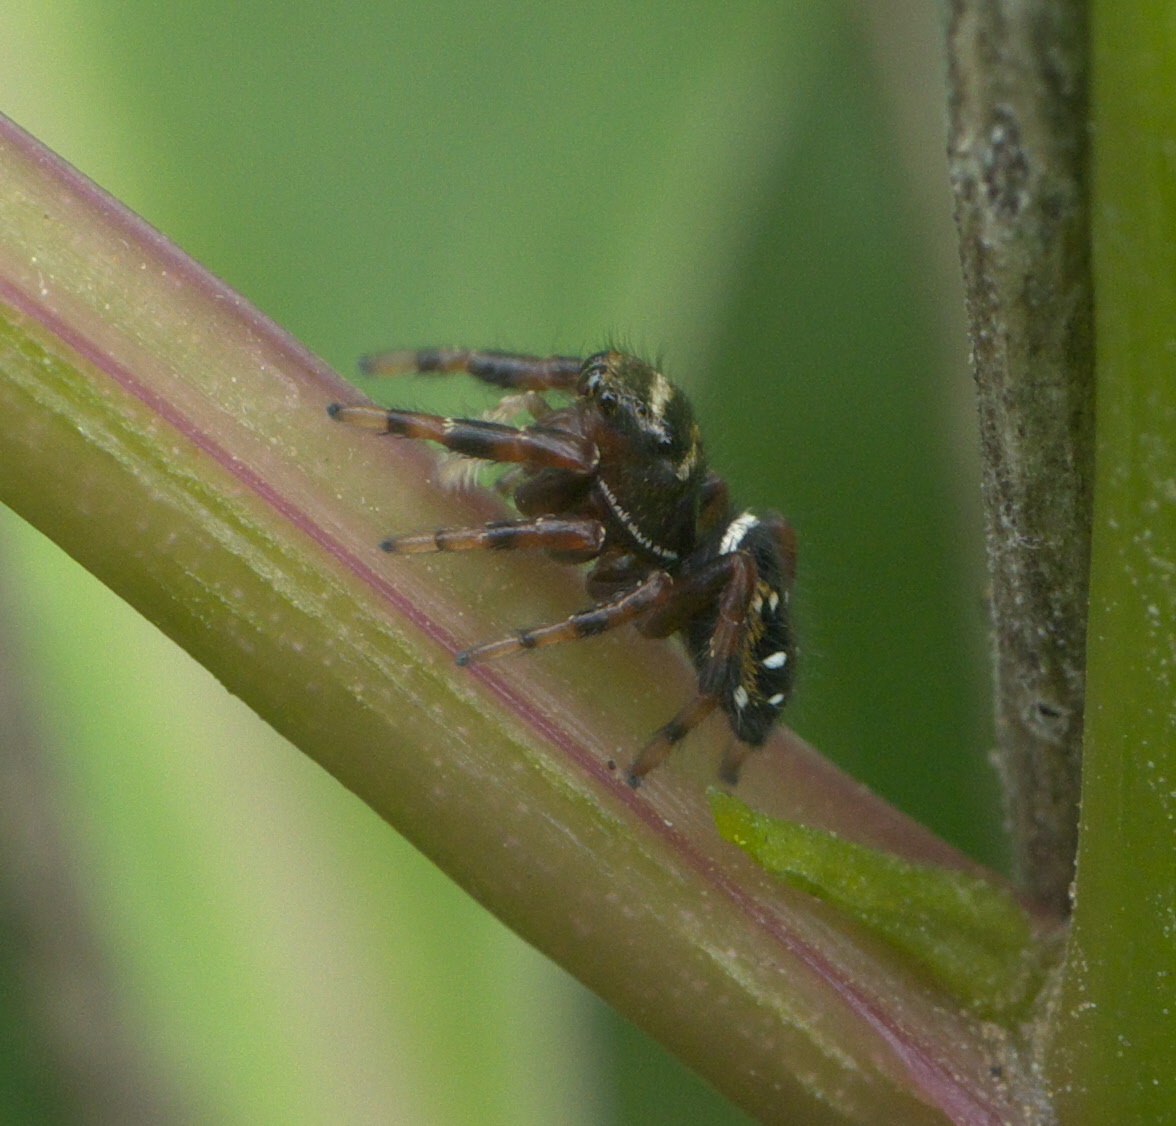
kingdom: Animalia
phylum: Arthropoda
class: Arachnida
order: Araneae
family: Salticidae
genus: Phidippus
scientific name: Phidippus clarus
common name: Brilliant jumping spider
